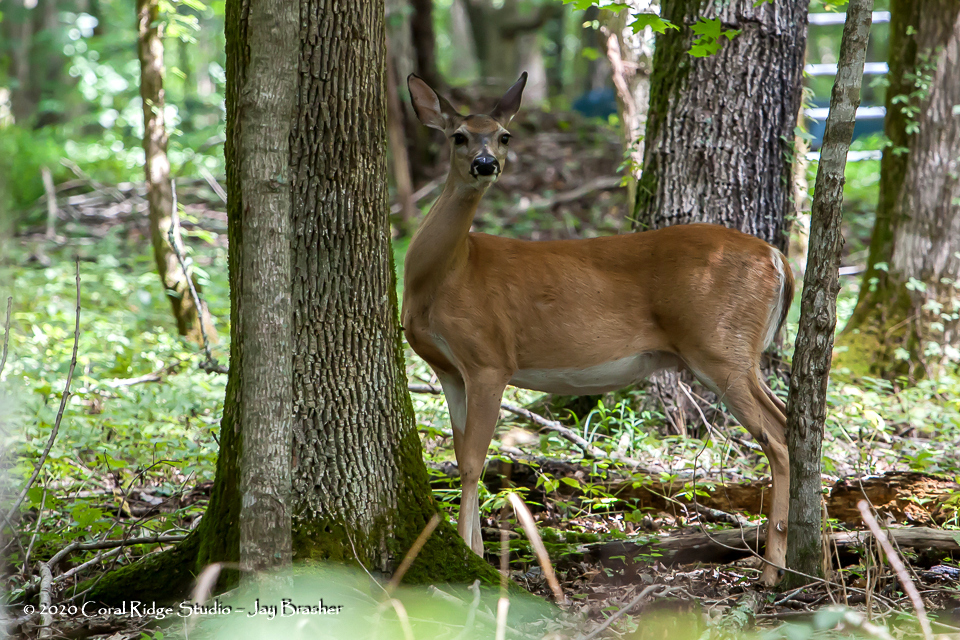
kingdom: Animalia
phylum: Chordata
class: Mammalia
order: Artiodactyla
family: Cervidae
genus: Odocoileus
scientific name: Odocoileus virginianus
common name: White-tailed deer
